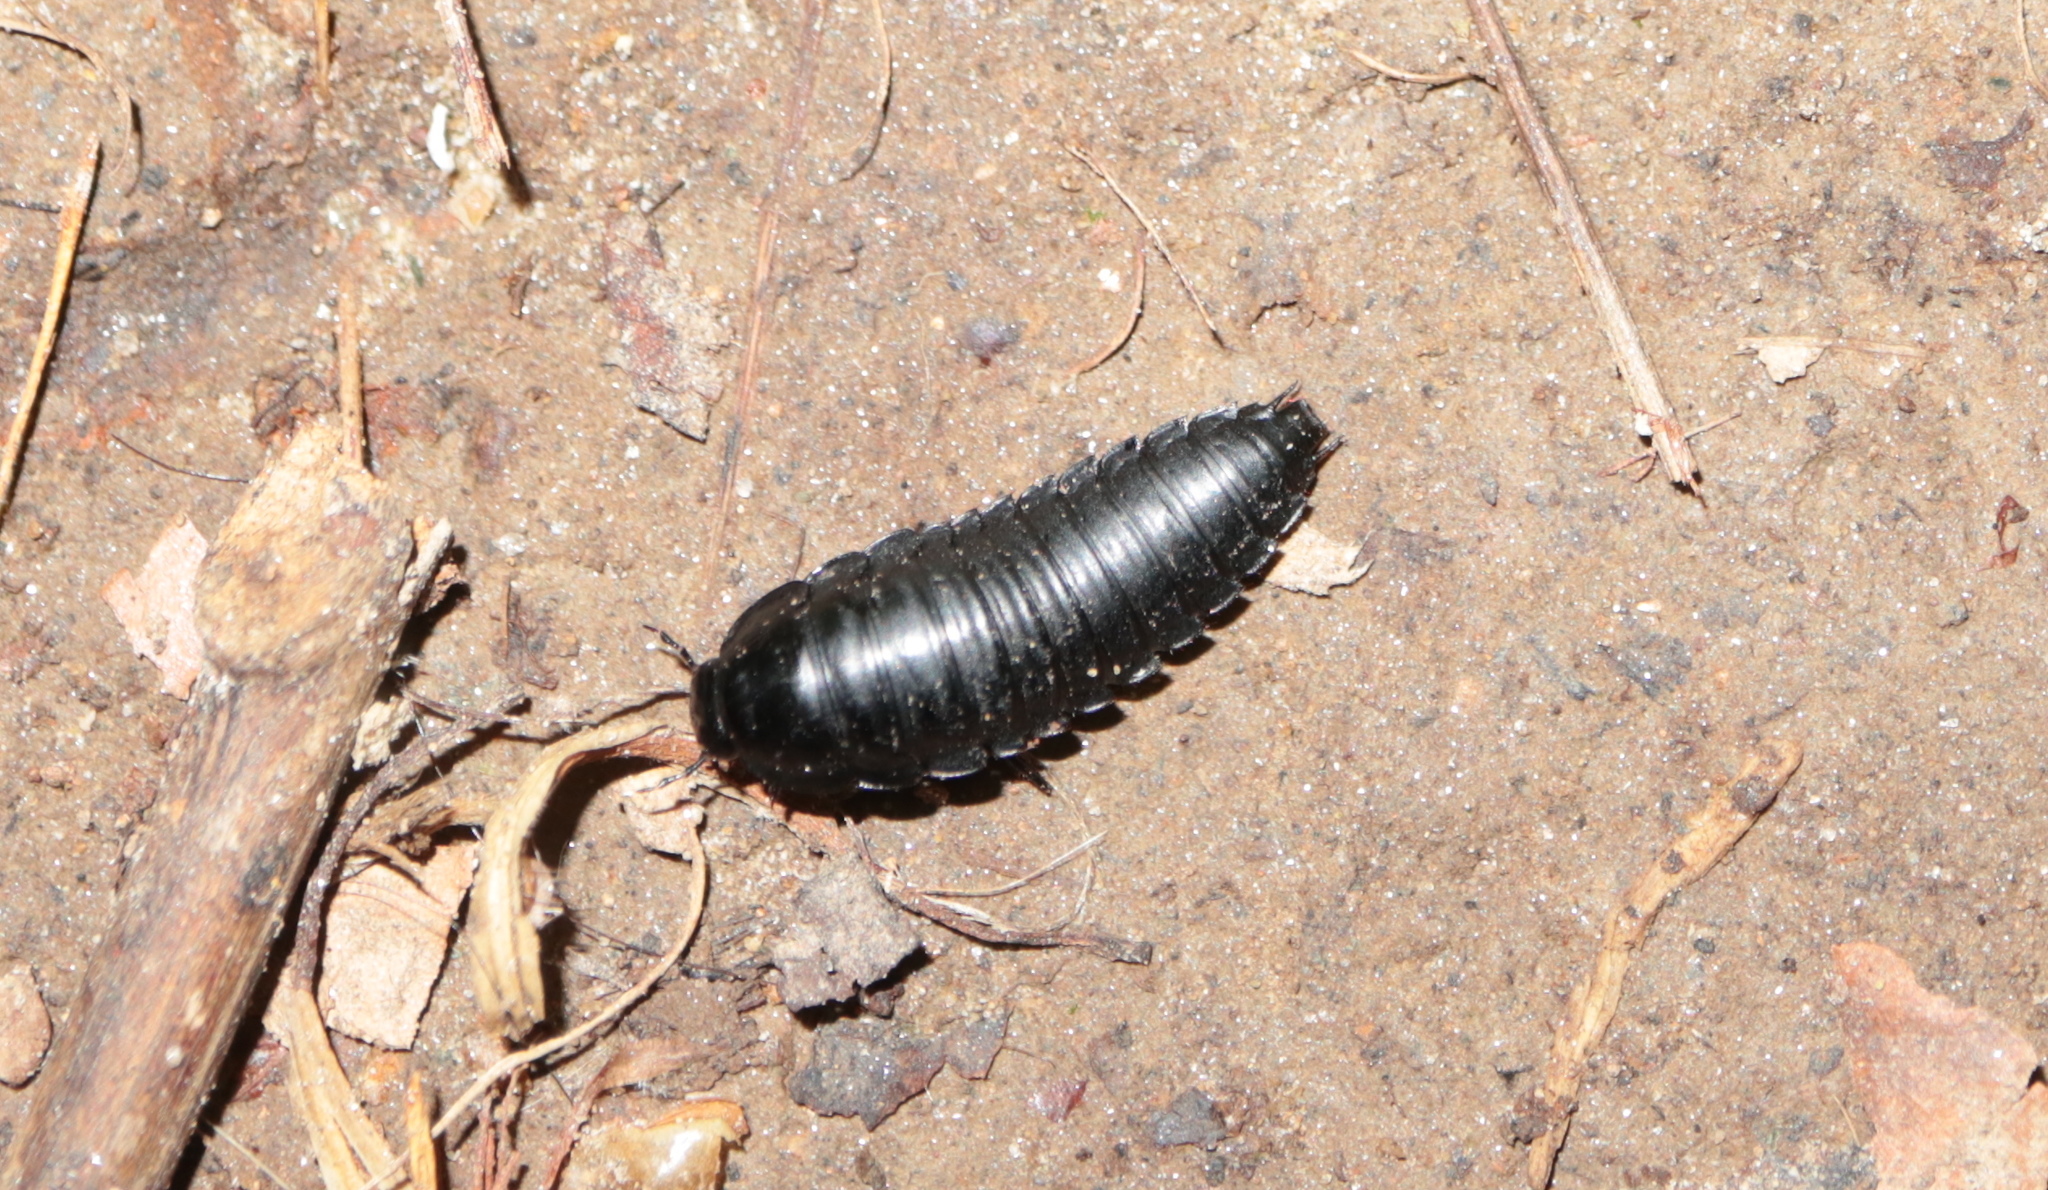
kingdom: Animalia
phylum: Arthropoda
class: Insecta
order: Coleoptera
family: Staphylinidae
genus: Necrophila
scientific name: Necrophila americana
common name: American carrion beetle
